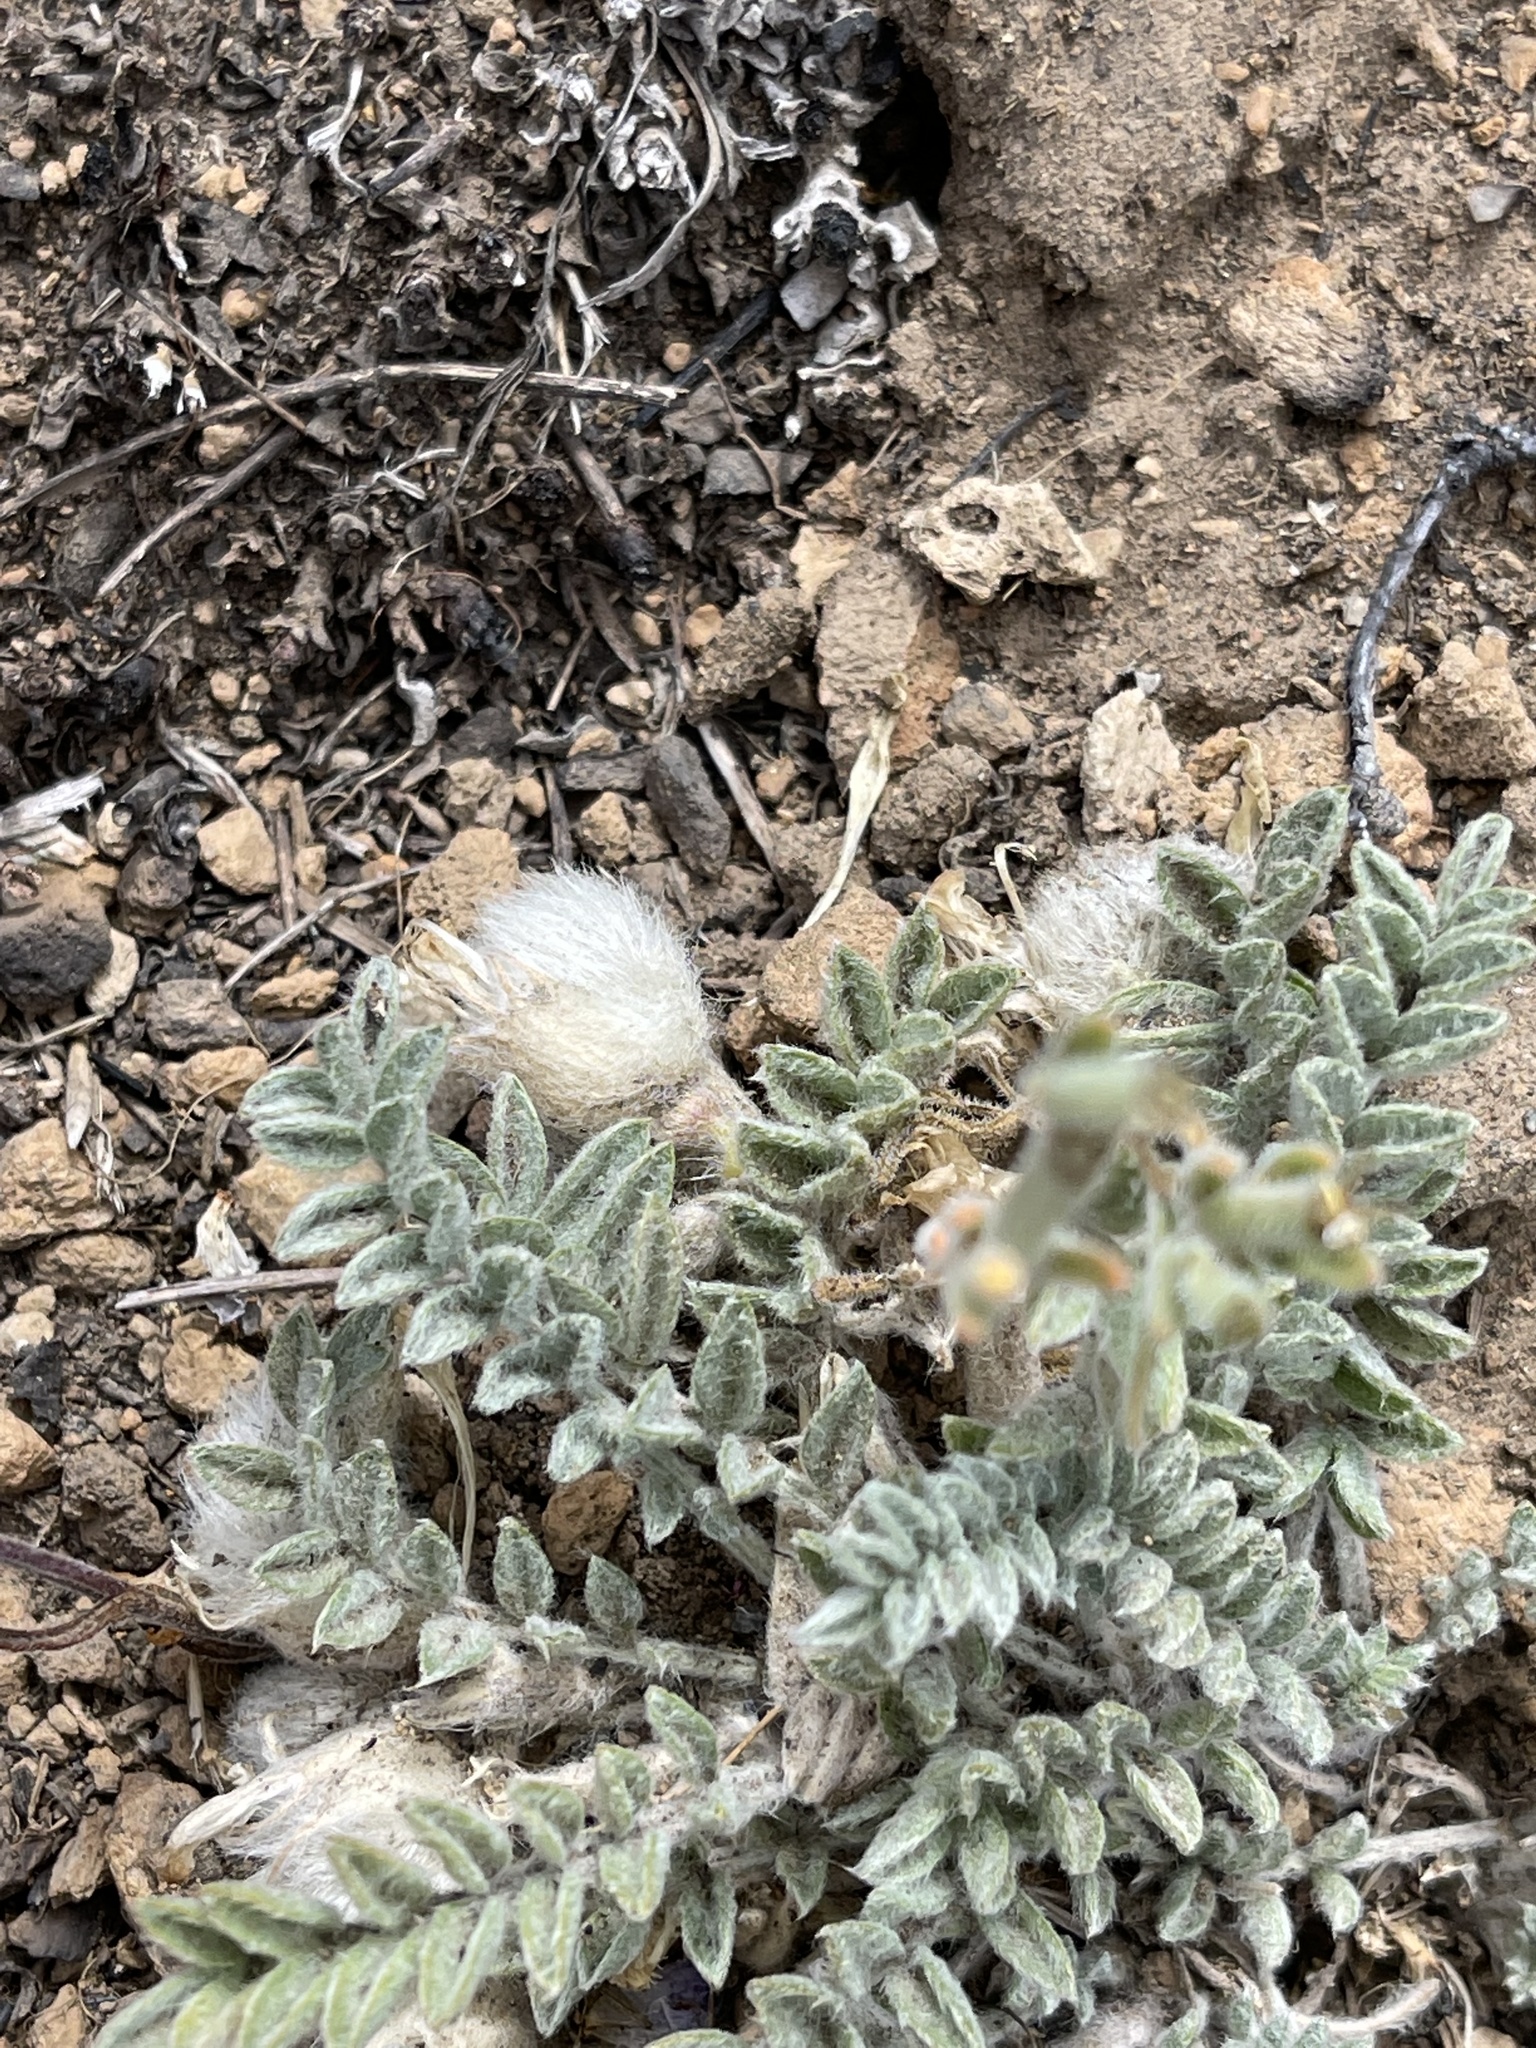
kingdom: Plantae
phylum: Tracheophyta
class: Magnoliopsida
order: Fabales
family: Fabaceae
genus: Astragalus
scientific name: Astragalus purshii
